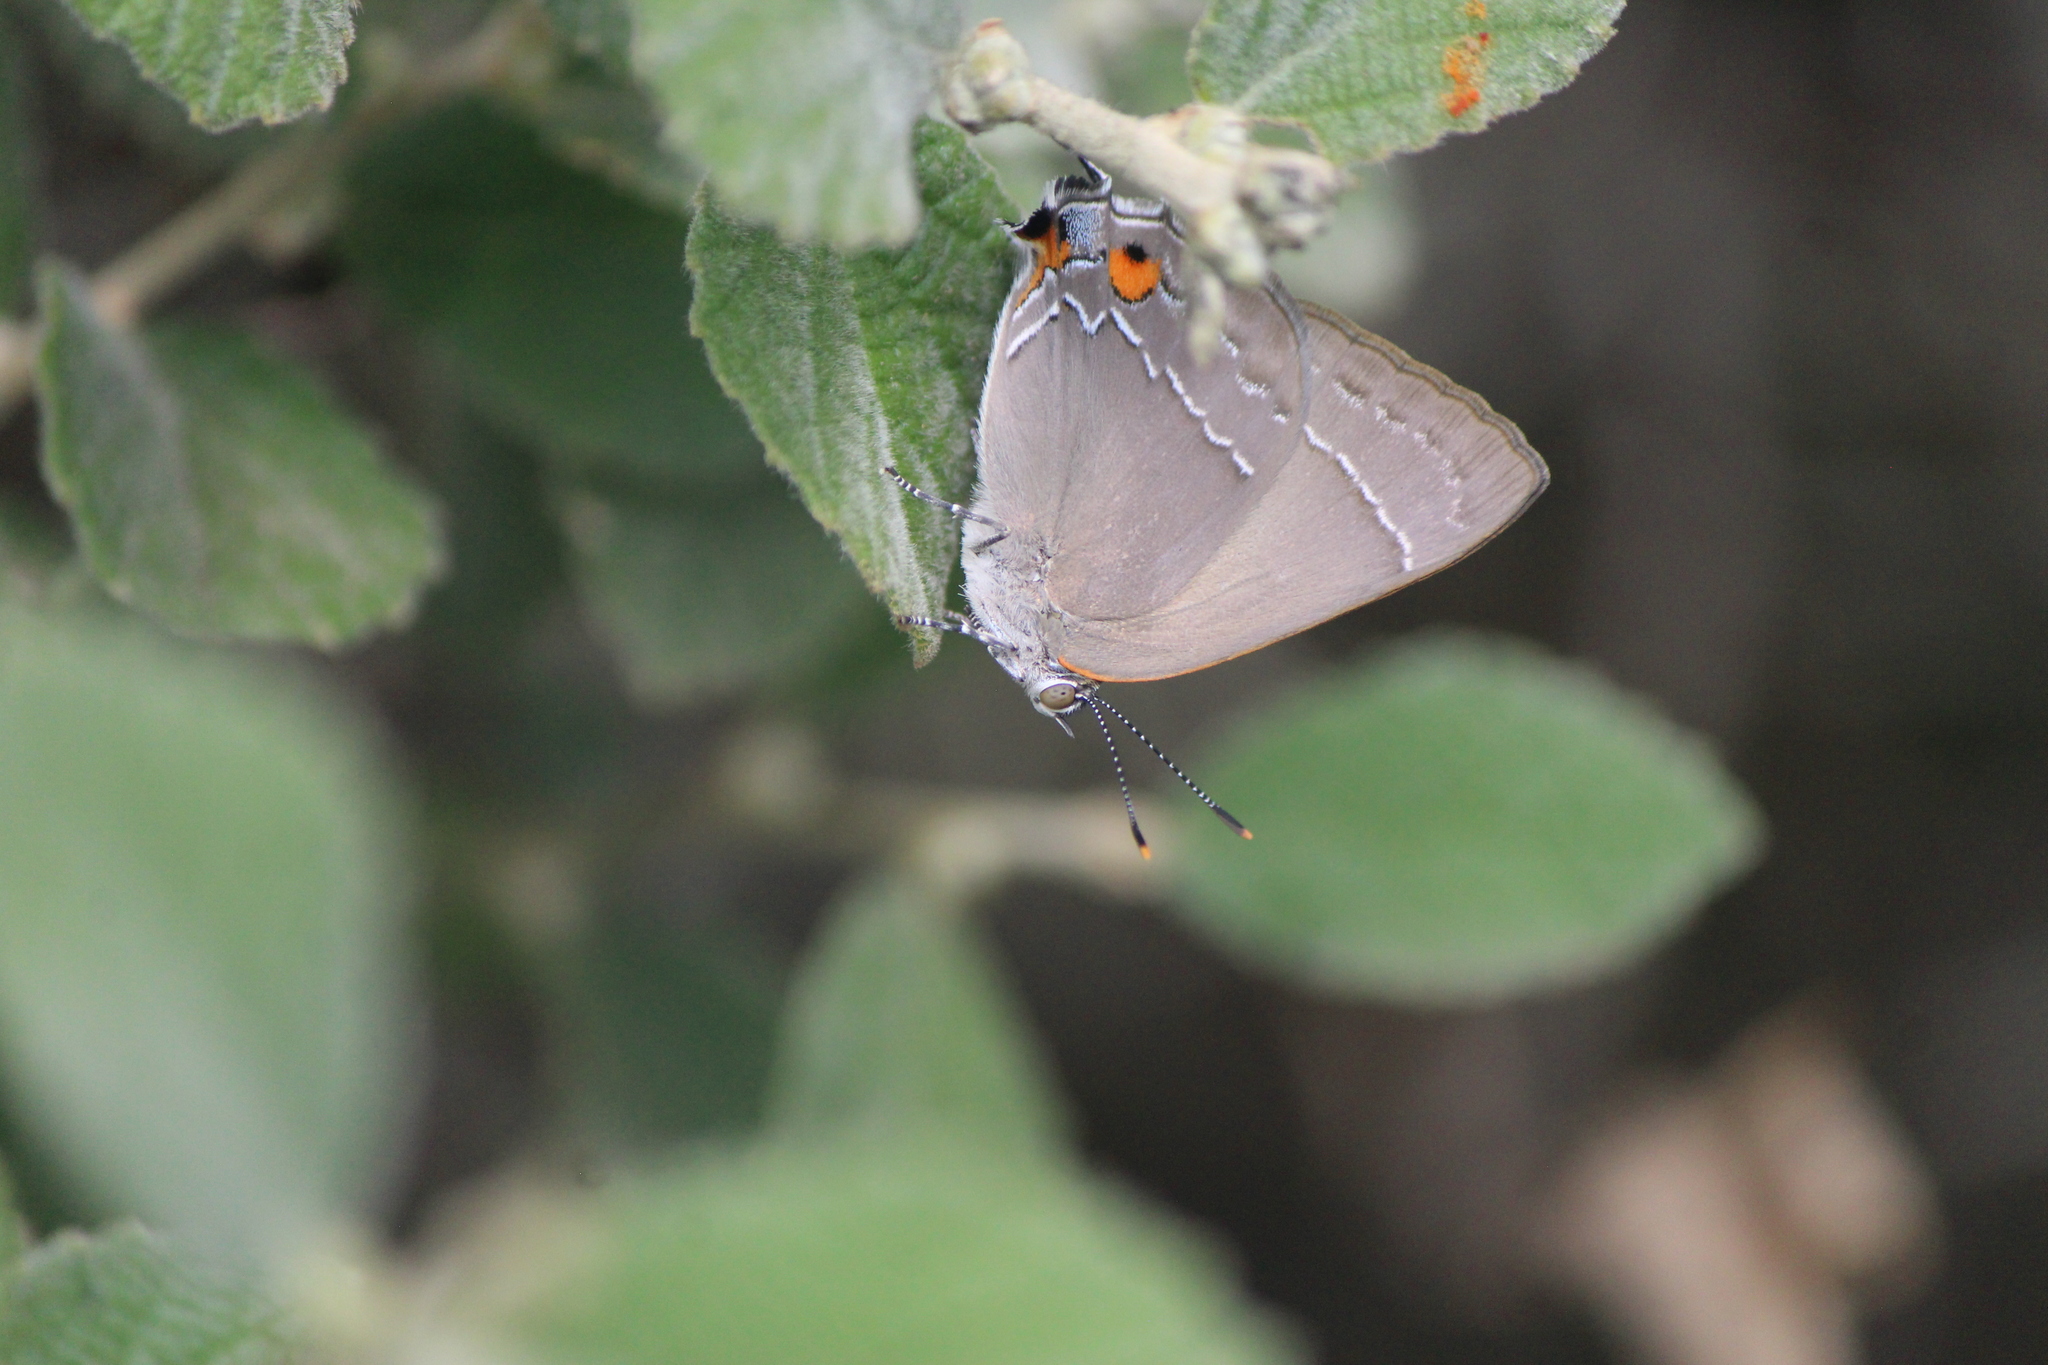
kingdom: Animalia
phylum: Arthropoda
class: Insecta
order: Lepidoptera
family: Lycaenidae
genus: Rekoa
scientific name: Rekoa
